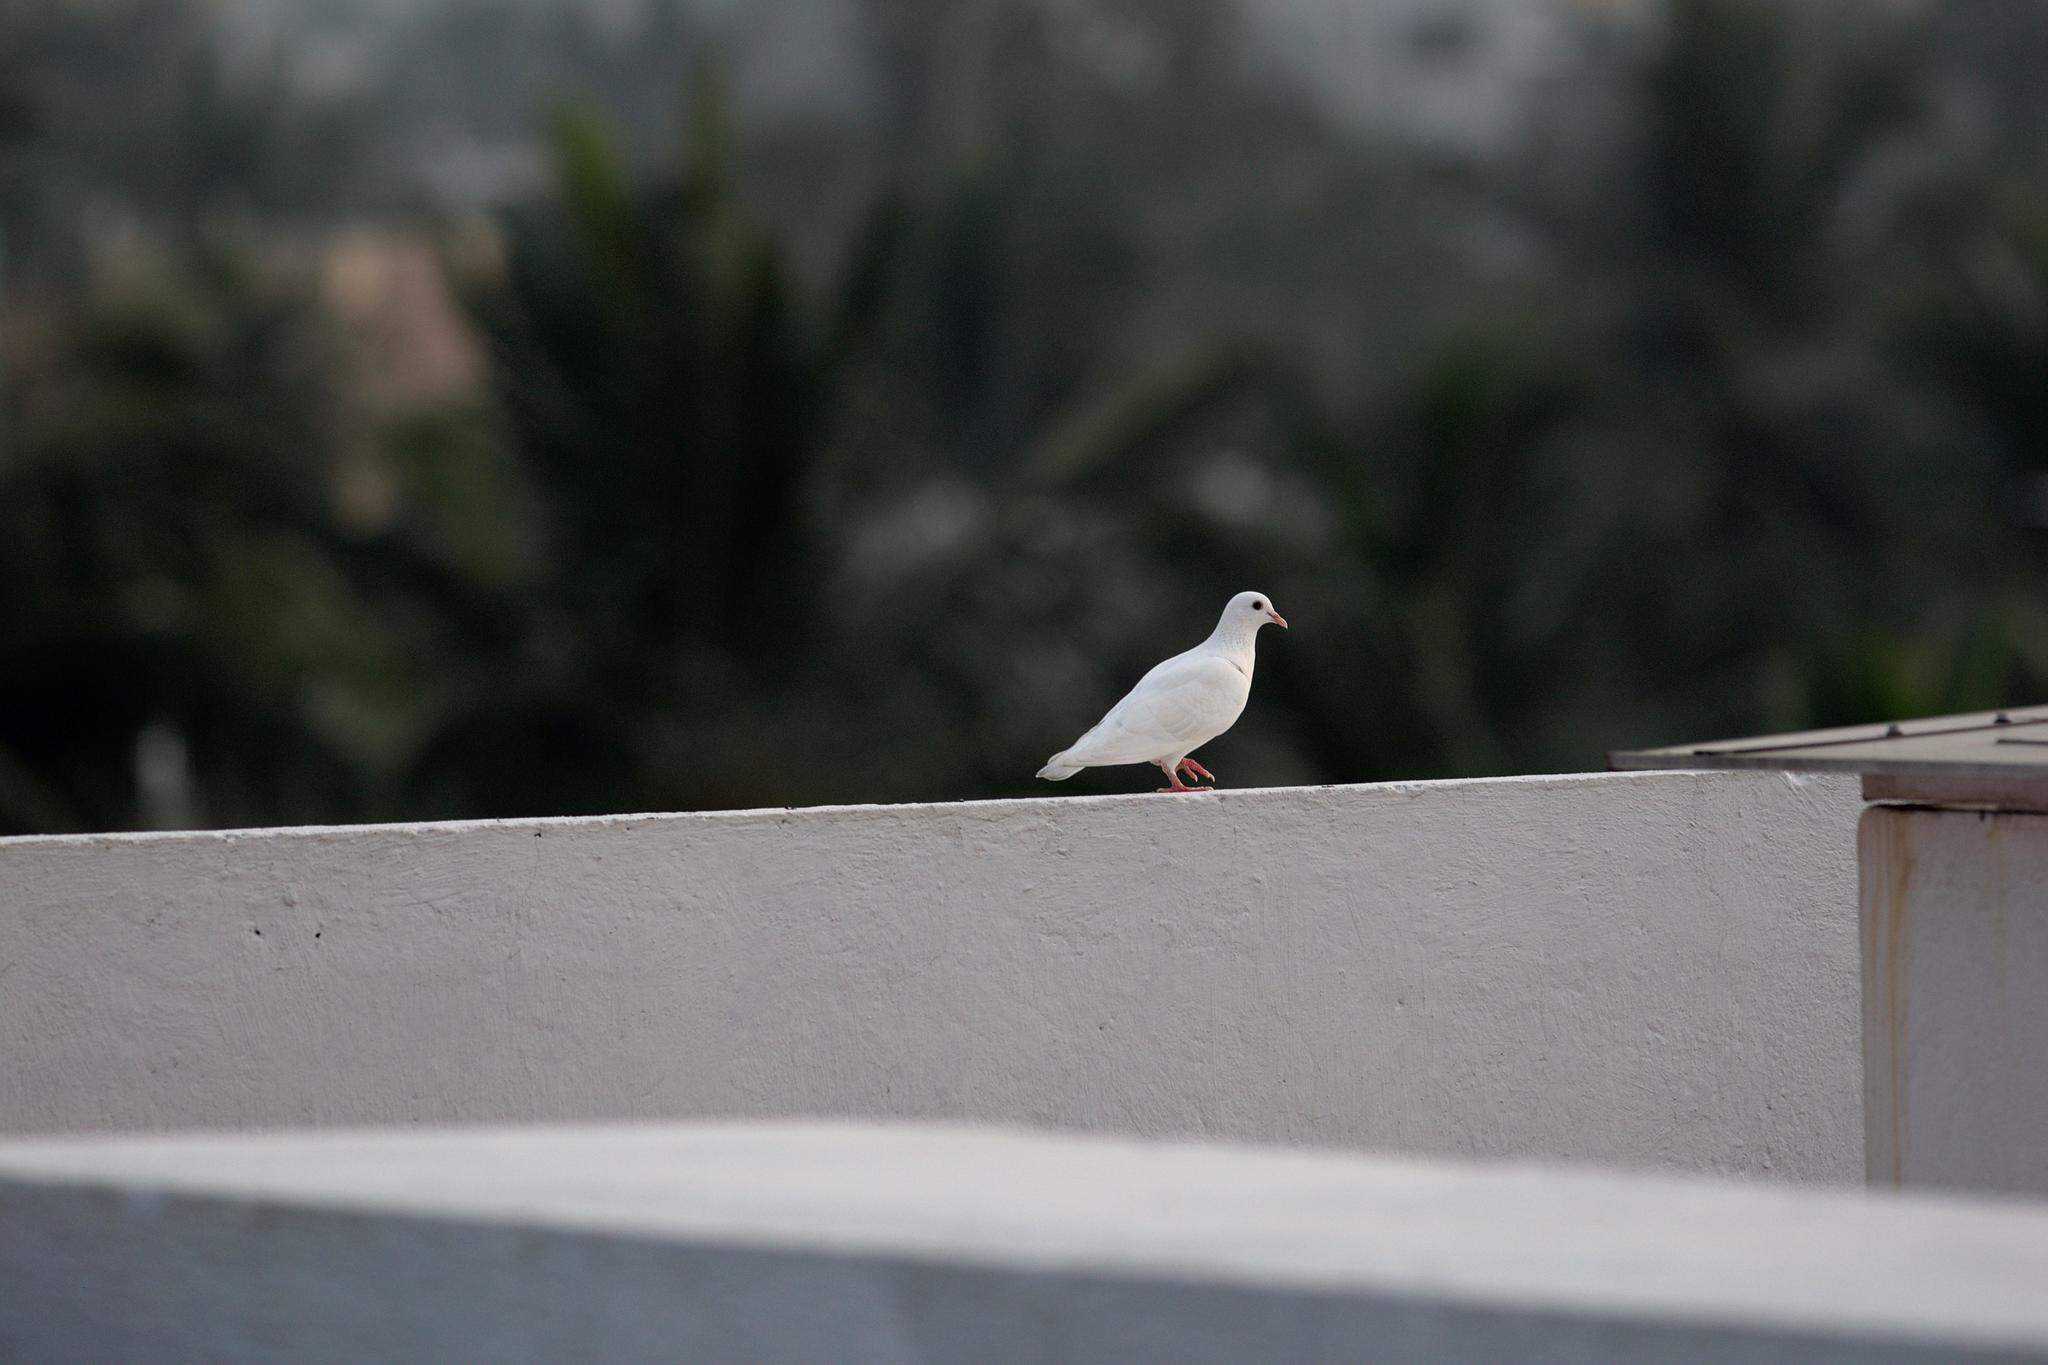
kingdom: Animalia
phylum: Chordata
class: Aves
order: Columbiformes
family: Columbidae
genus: Columba
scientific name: Columba livia
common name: Rock pigeon
